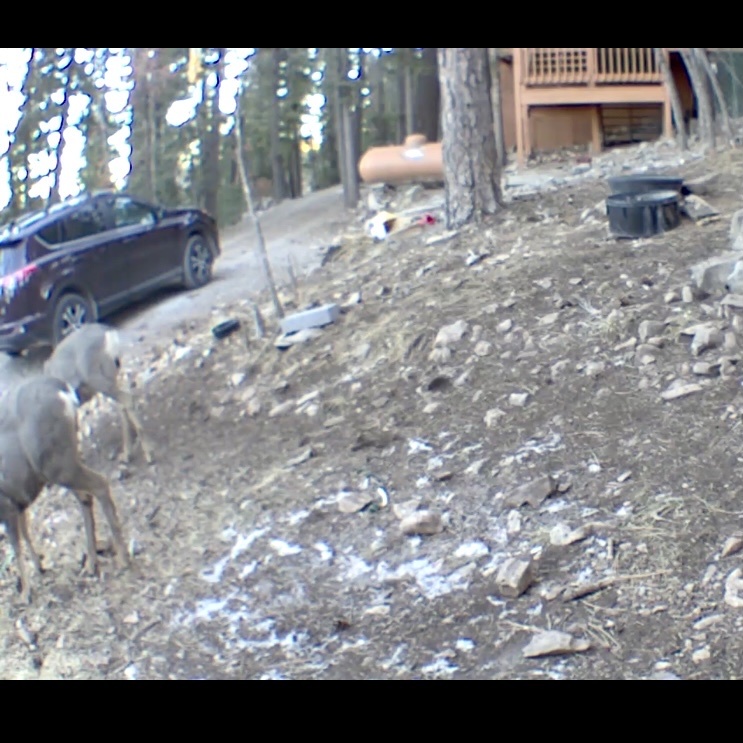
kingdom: Animalia
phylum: Chordata
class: Mammalia
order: Artiodactyla
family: Cervidae
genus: Odocoileus
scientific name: Odocoileus hemionus
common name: Mule deer
